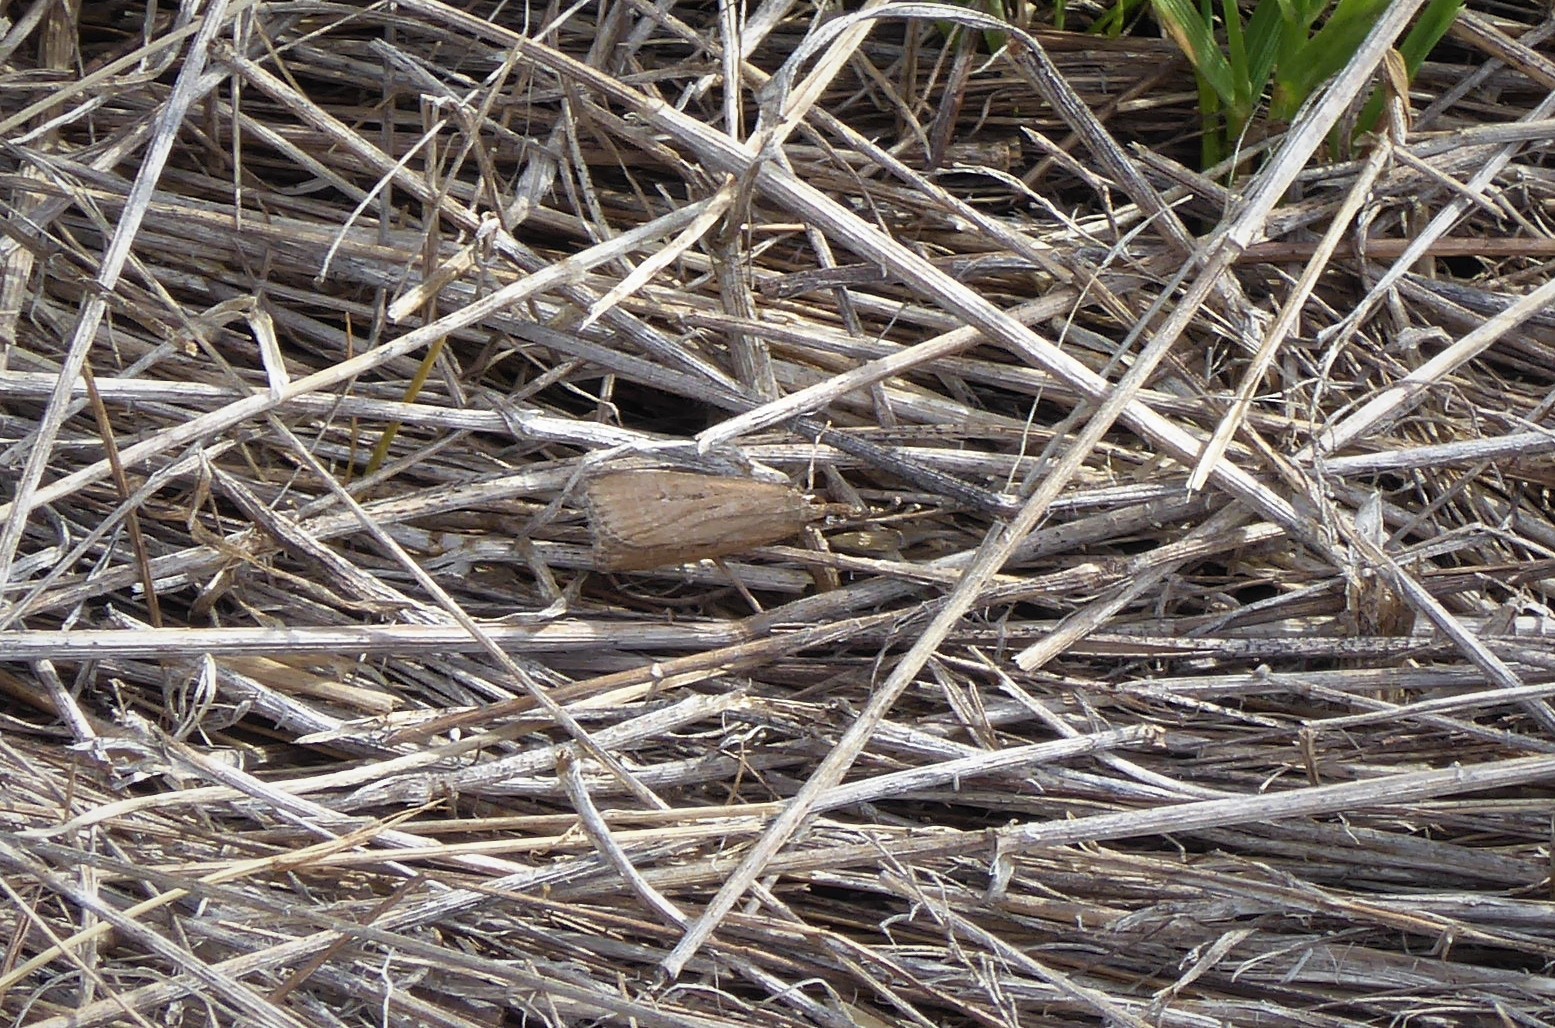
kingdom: Animalia
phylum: Arthropoda
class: Insecta
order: Lepidoptera
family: Crambidae
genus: Eudonia
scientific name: Eudonia octophora
